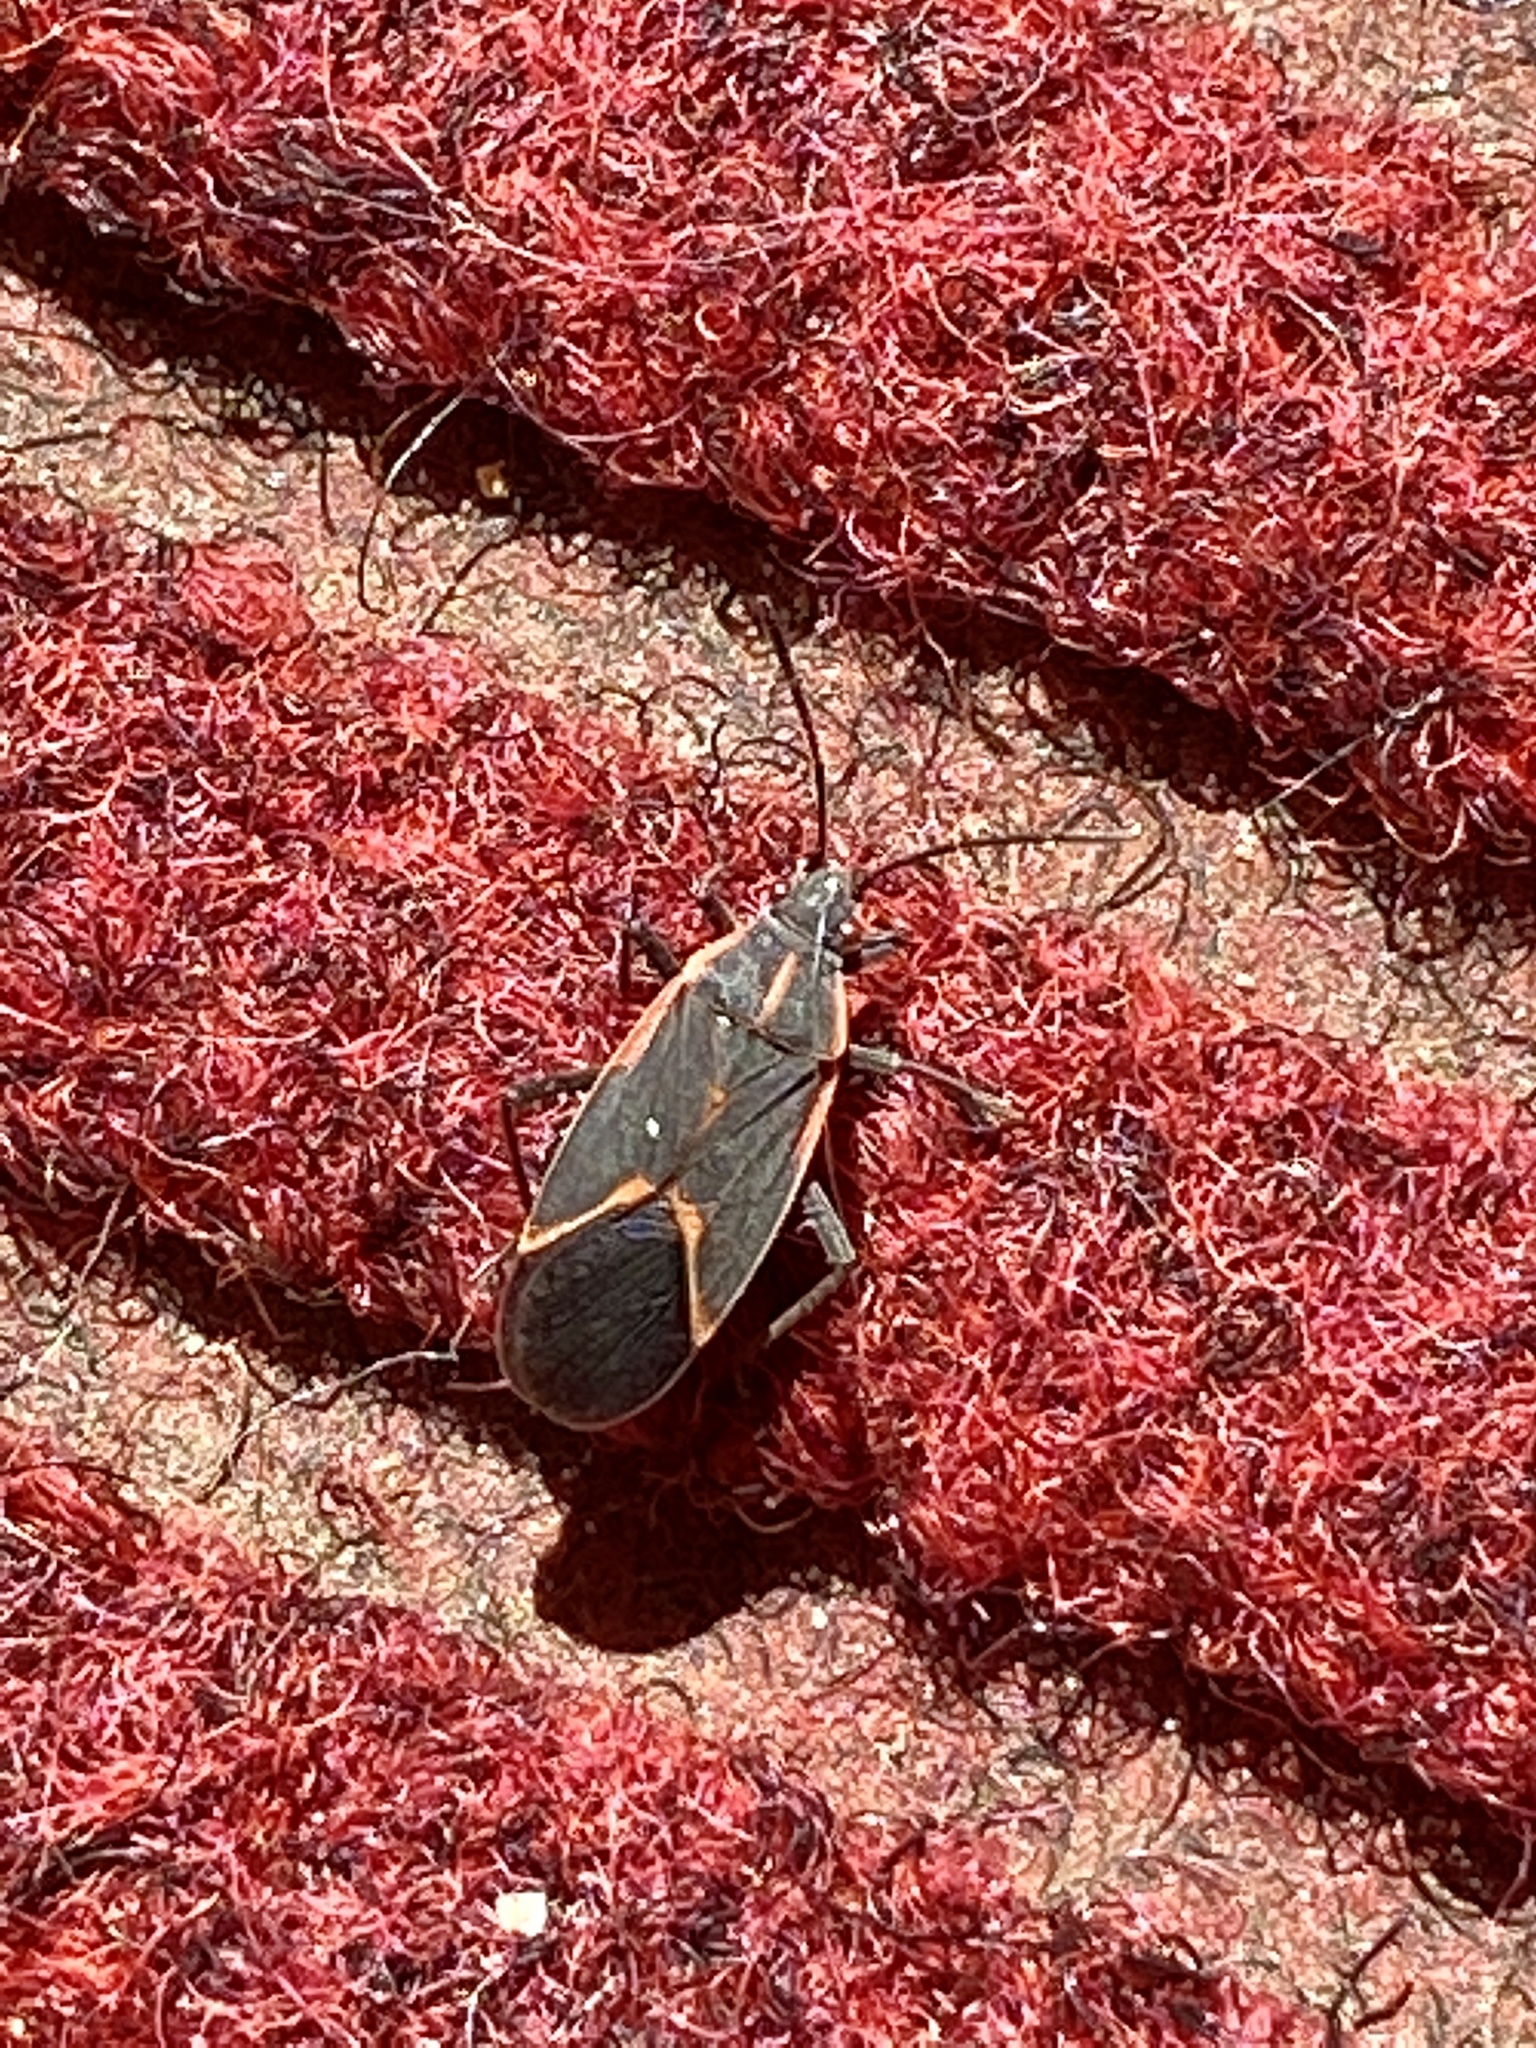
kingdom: Animalia
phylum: Arthropoda
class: Insecta
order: Hemiptera
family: Rhopalidae
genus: Boisea
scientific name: Boisea trivittata
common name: Boxelder bug
